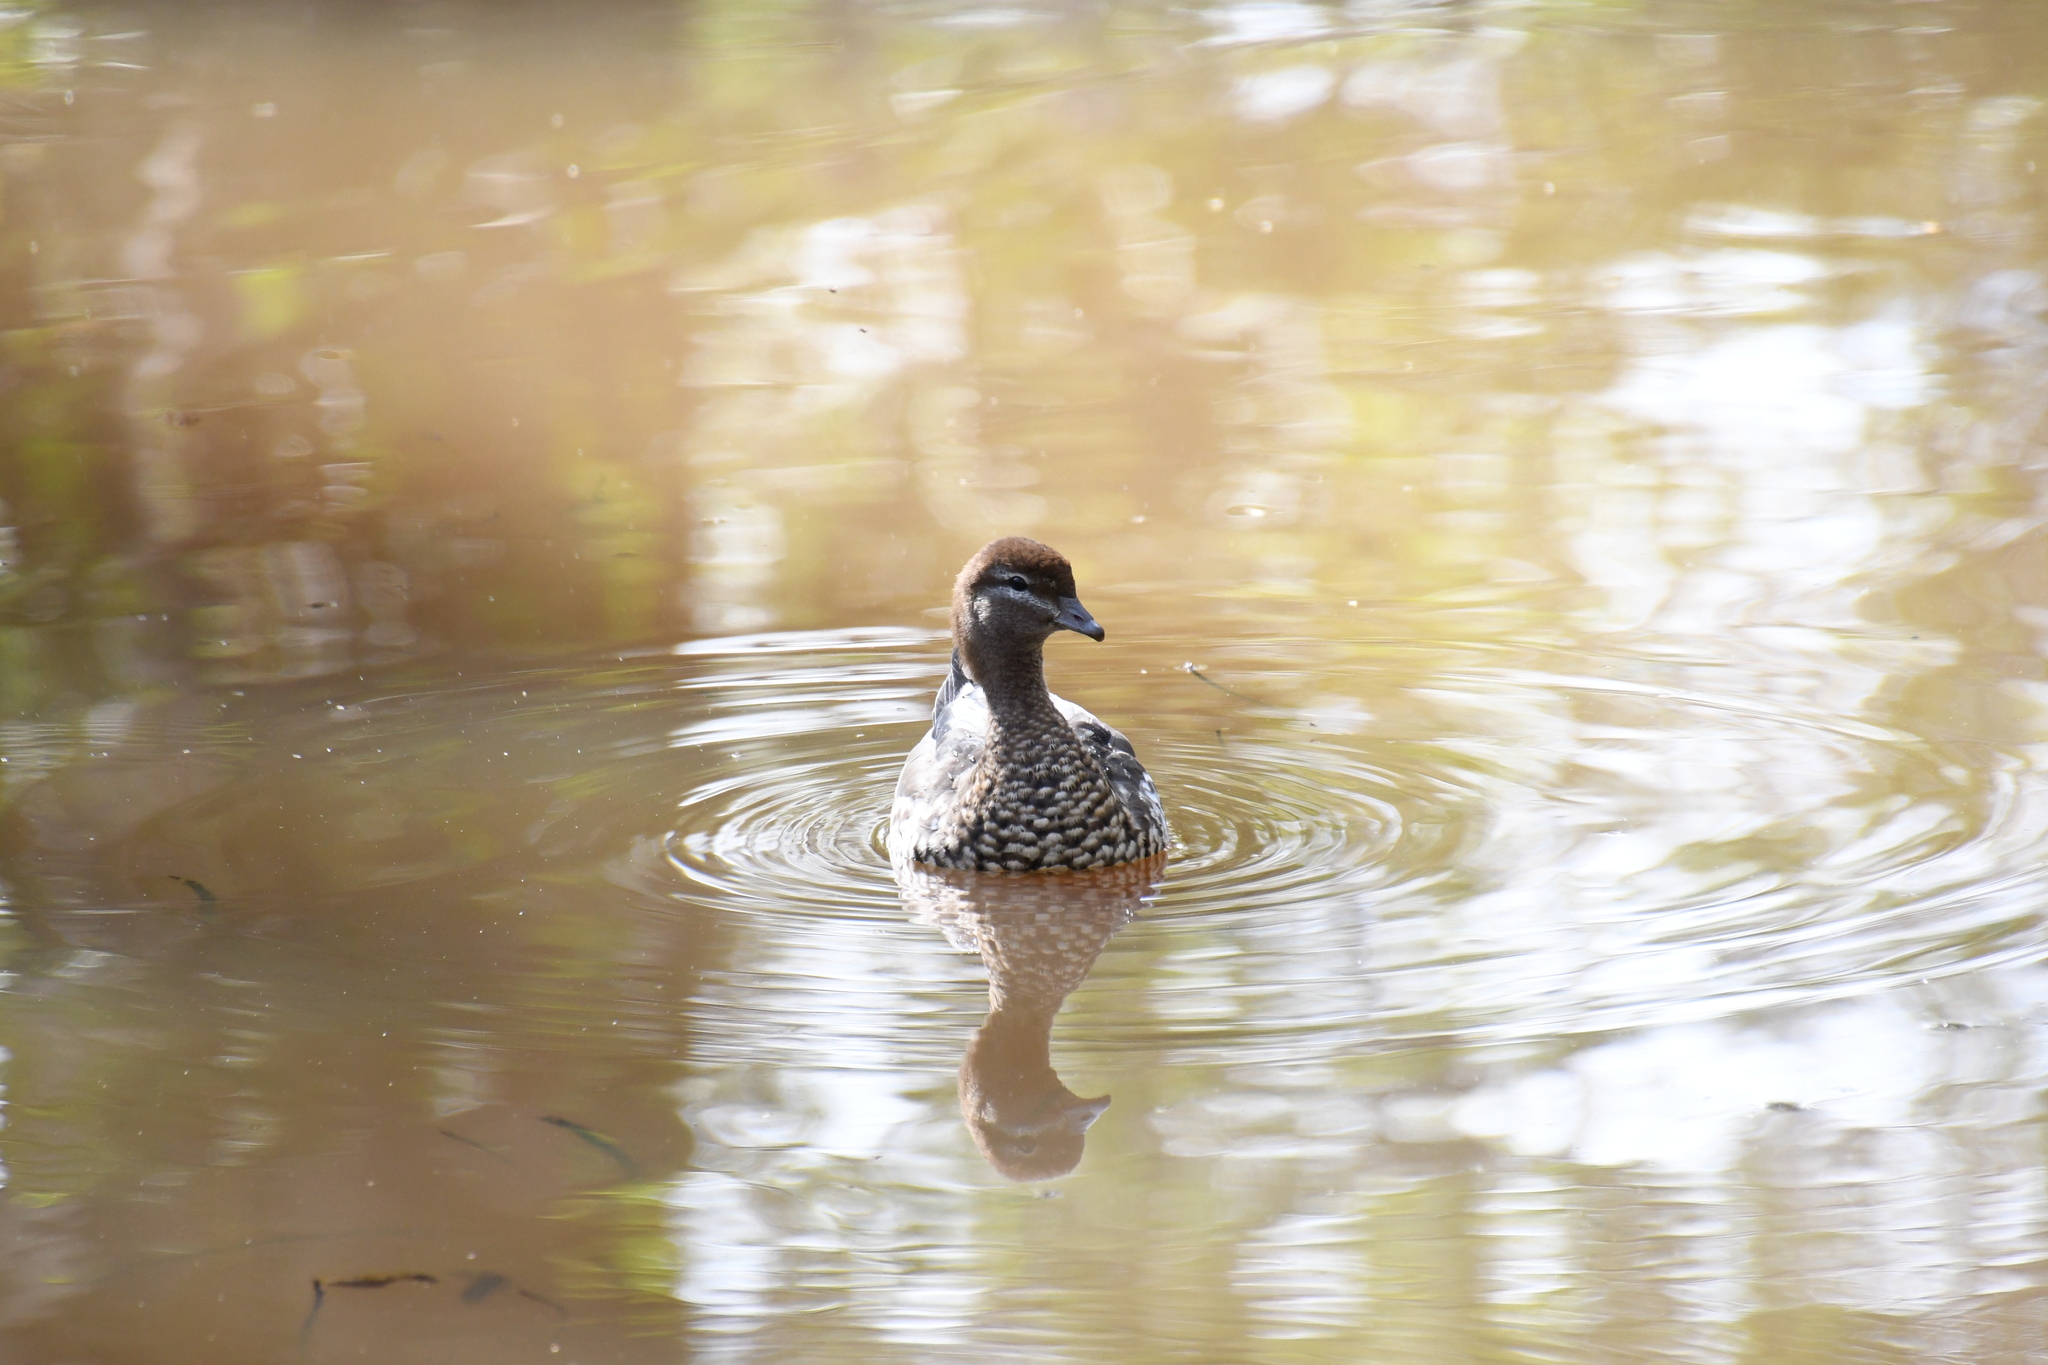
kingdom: Animalia
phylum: Chordata
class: Aves
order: Anseriformes
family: Anatidae
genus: Chenonetta
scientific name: Chenonetta jubata
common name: Maned duck
